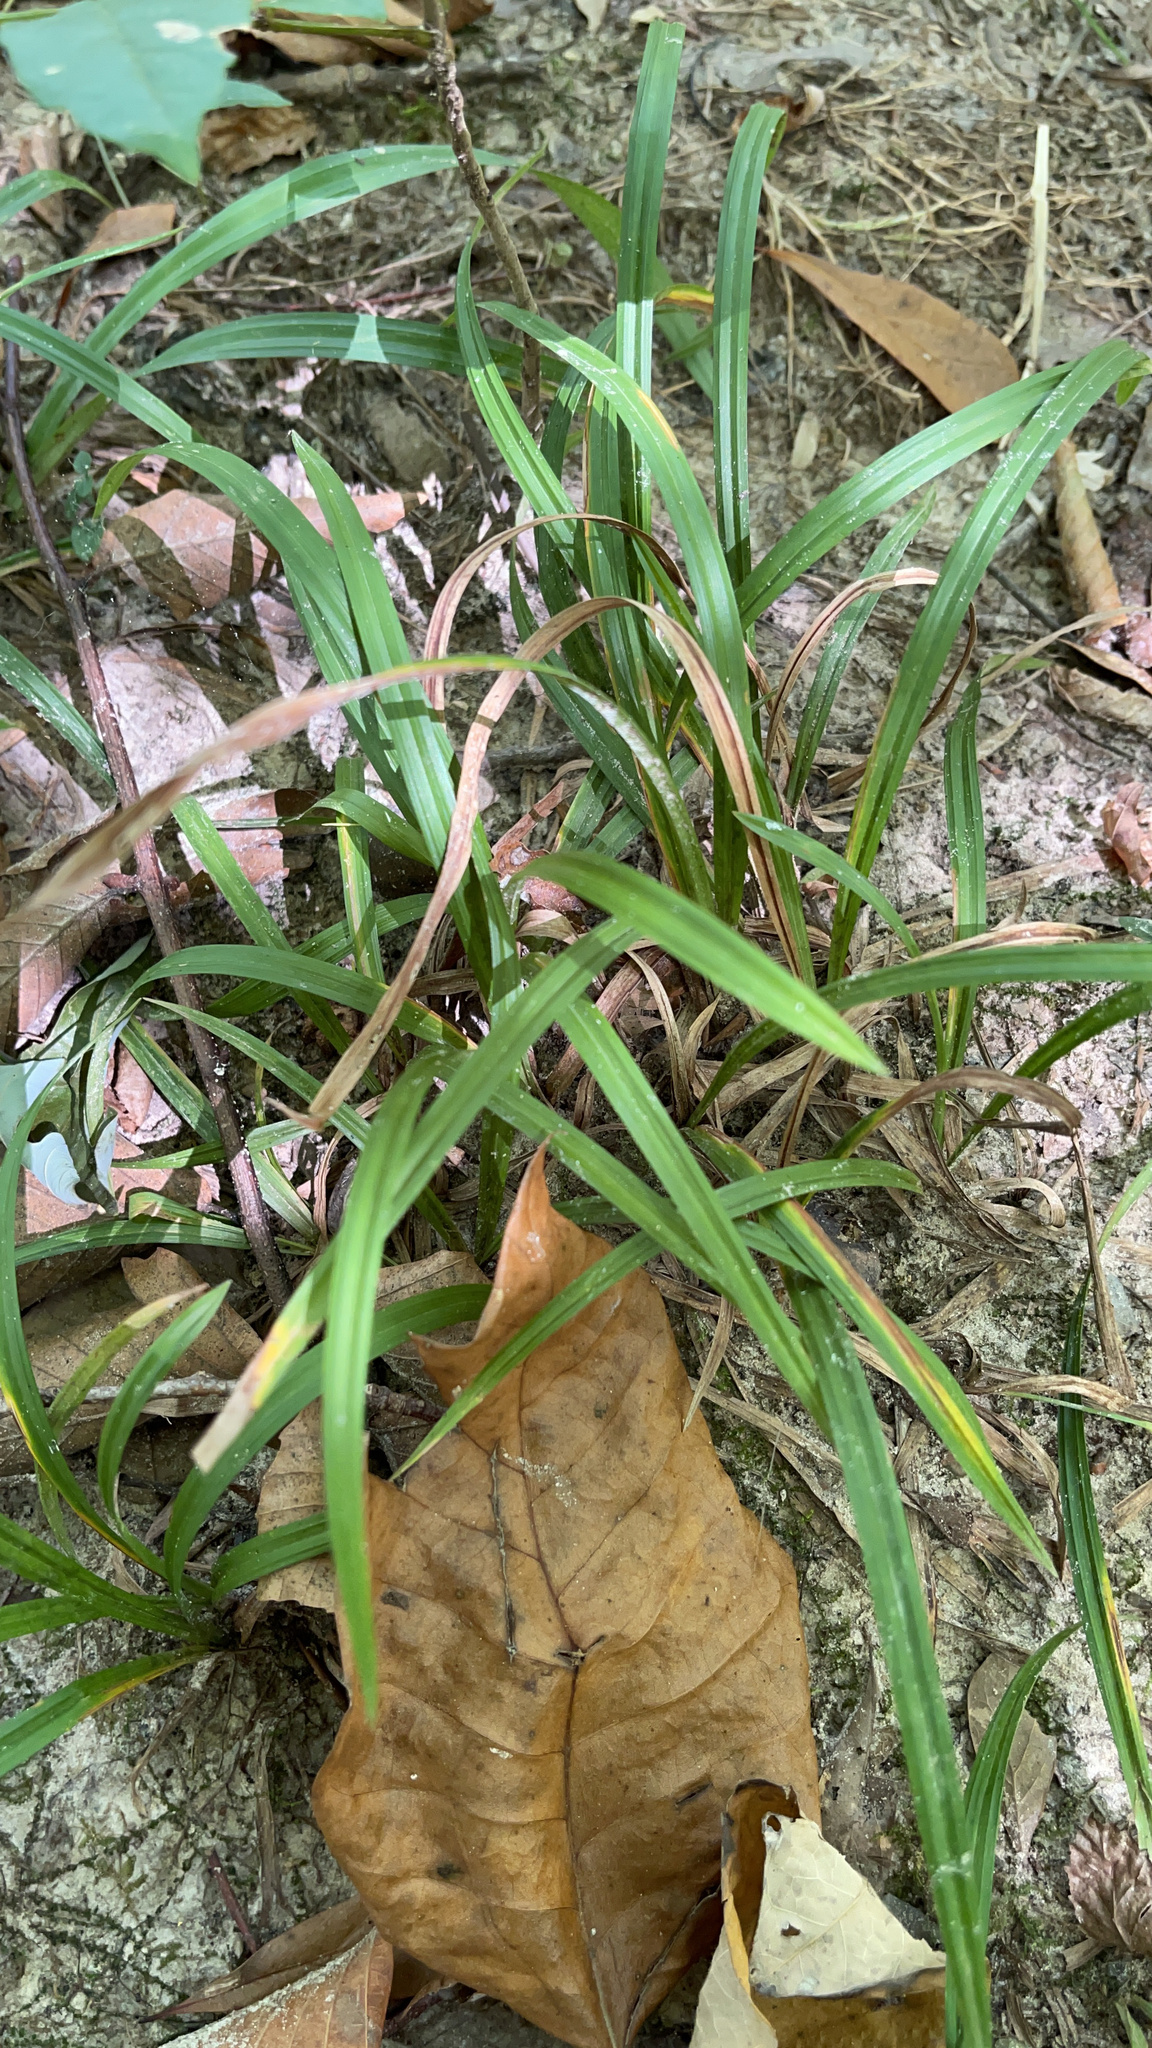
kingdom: Plantae
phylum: Tracheophyta
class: Liliopsida
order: Poales
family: Cyperaceae
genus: Carex
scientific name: Carex
